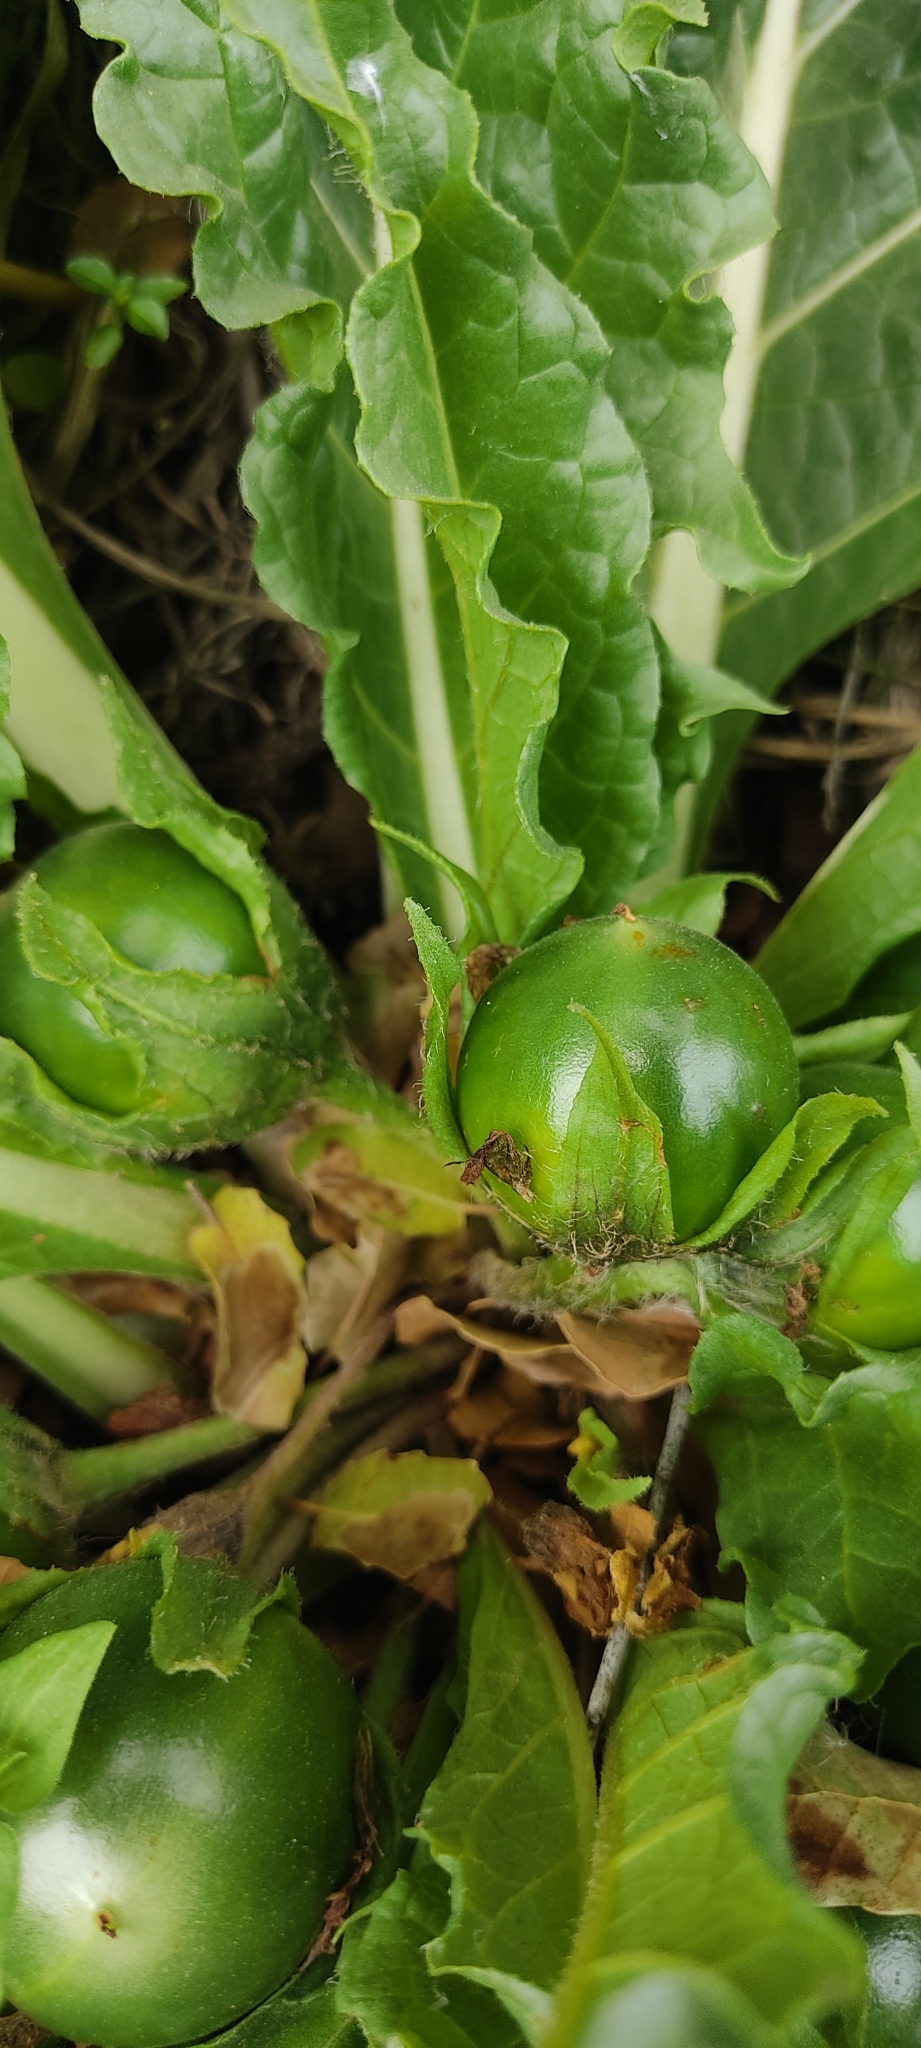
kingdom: Plantae
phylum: Tracheophyta
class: Magnoliopsida
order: Solanales
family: Solanaceae
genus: Mandragora
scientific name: Mandragora officinarum
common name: Mandrake
